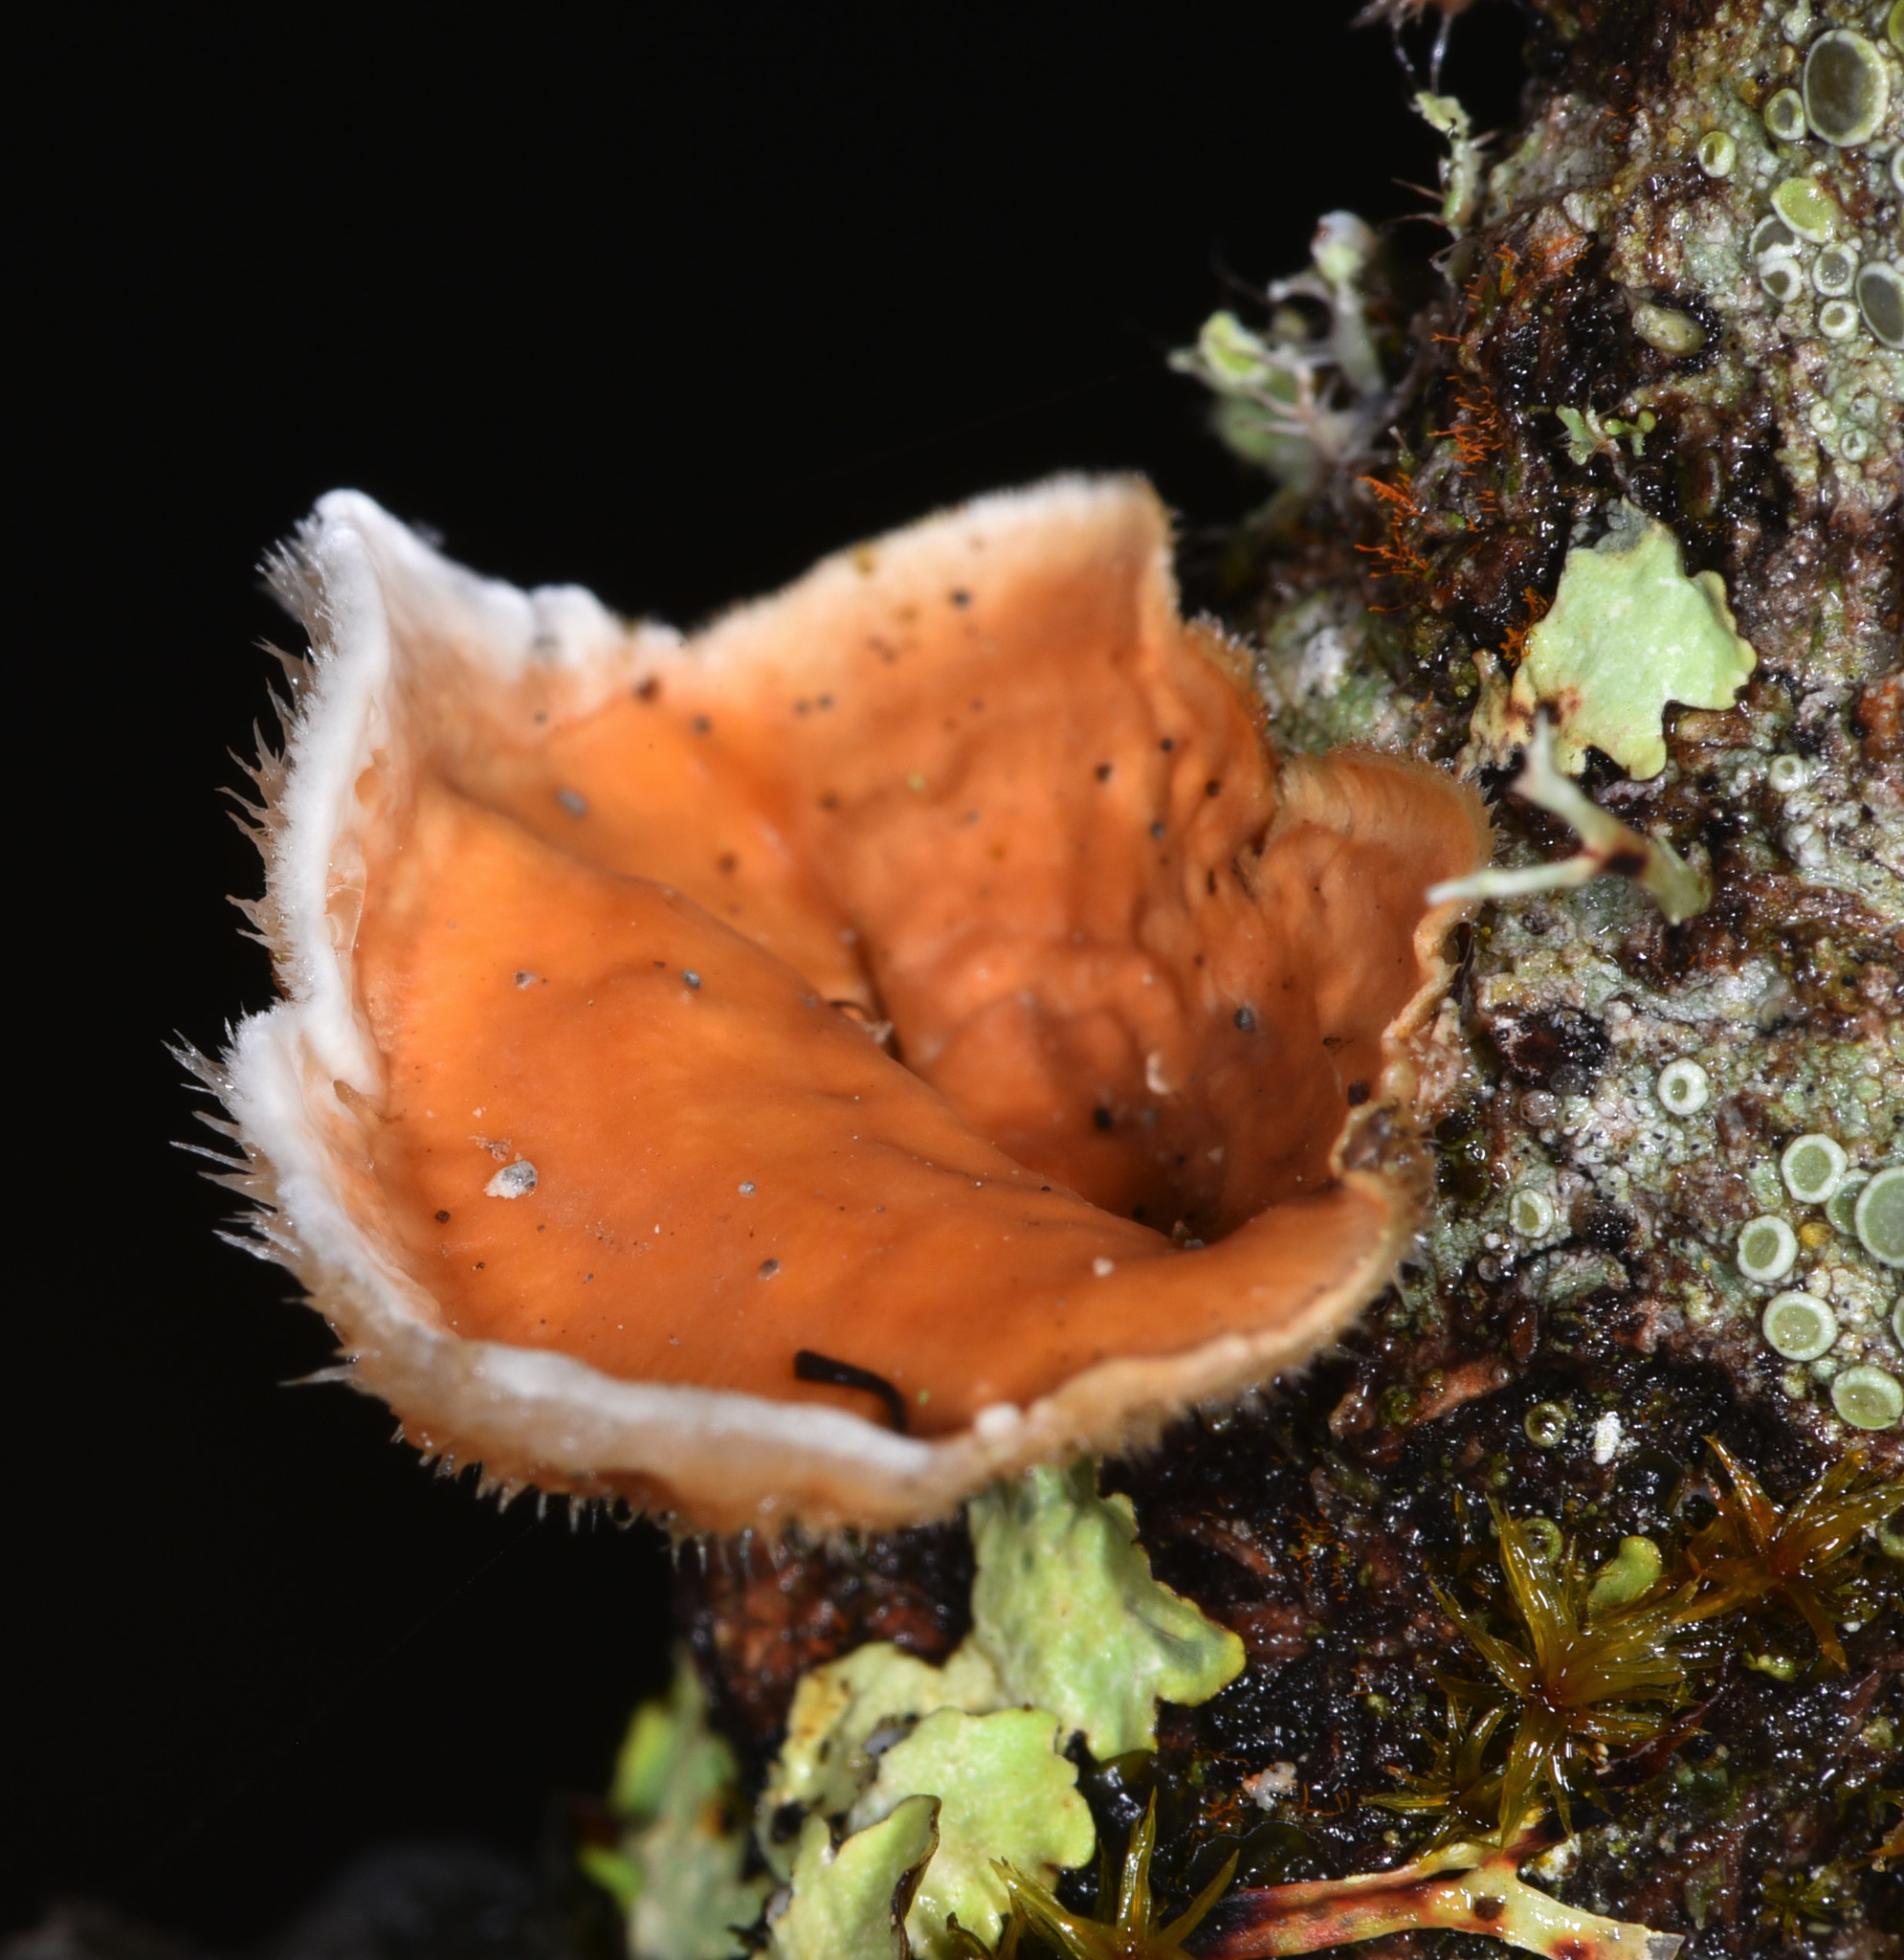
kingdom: Fungi
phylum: Basidiomycota
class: Agaricomycetes
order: Russulales
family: Stereaceae
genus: Stereum
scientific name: Stereum hirsutum
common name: Hairy curtain crust
